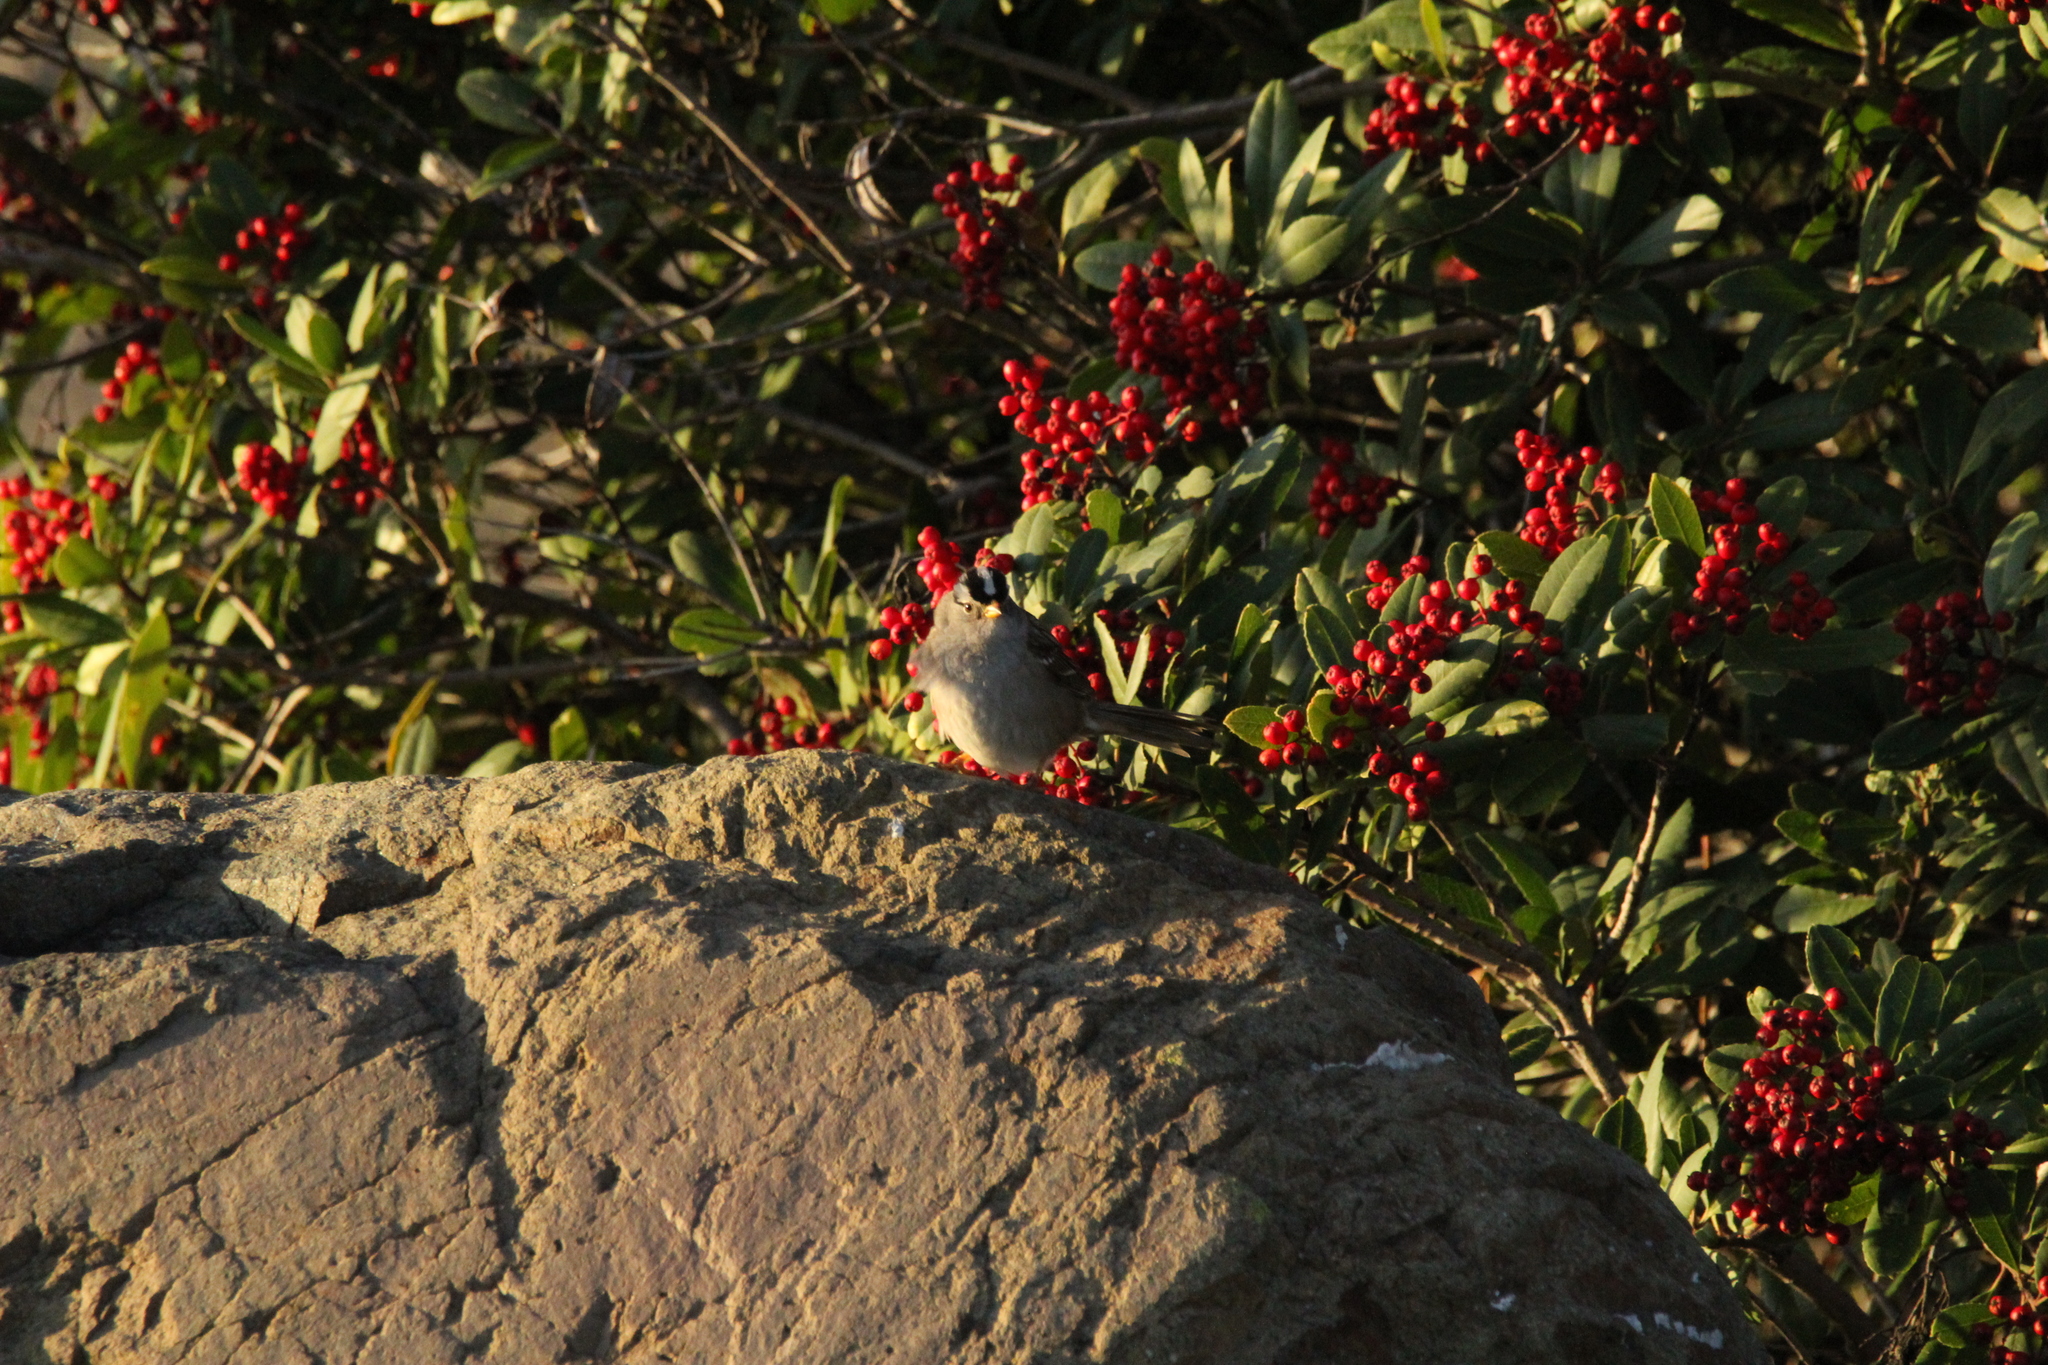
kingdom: Animalia
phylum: Chordata
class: Aves
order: Passeriformes
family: Passerellidae
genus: Zonotrichia
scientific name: Zonotrichia leucophrys
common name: White-crowned sparrow
